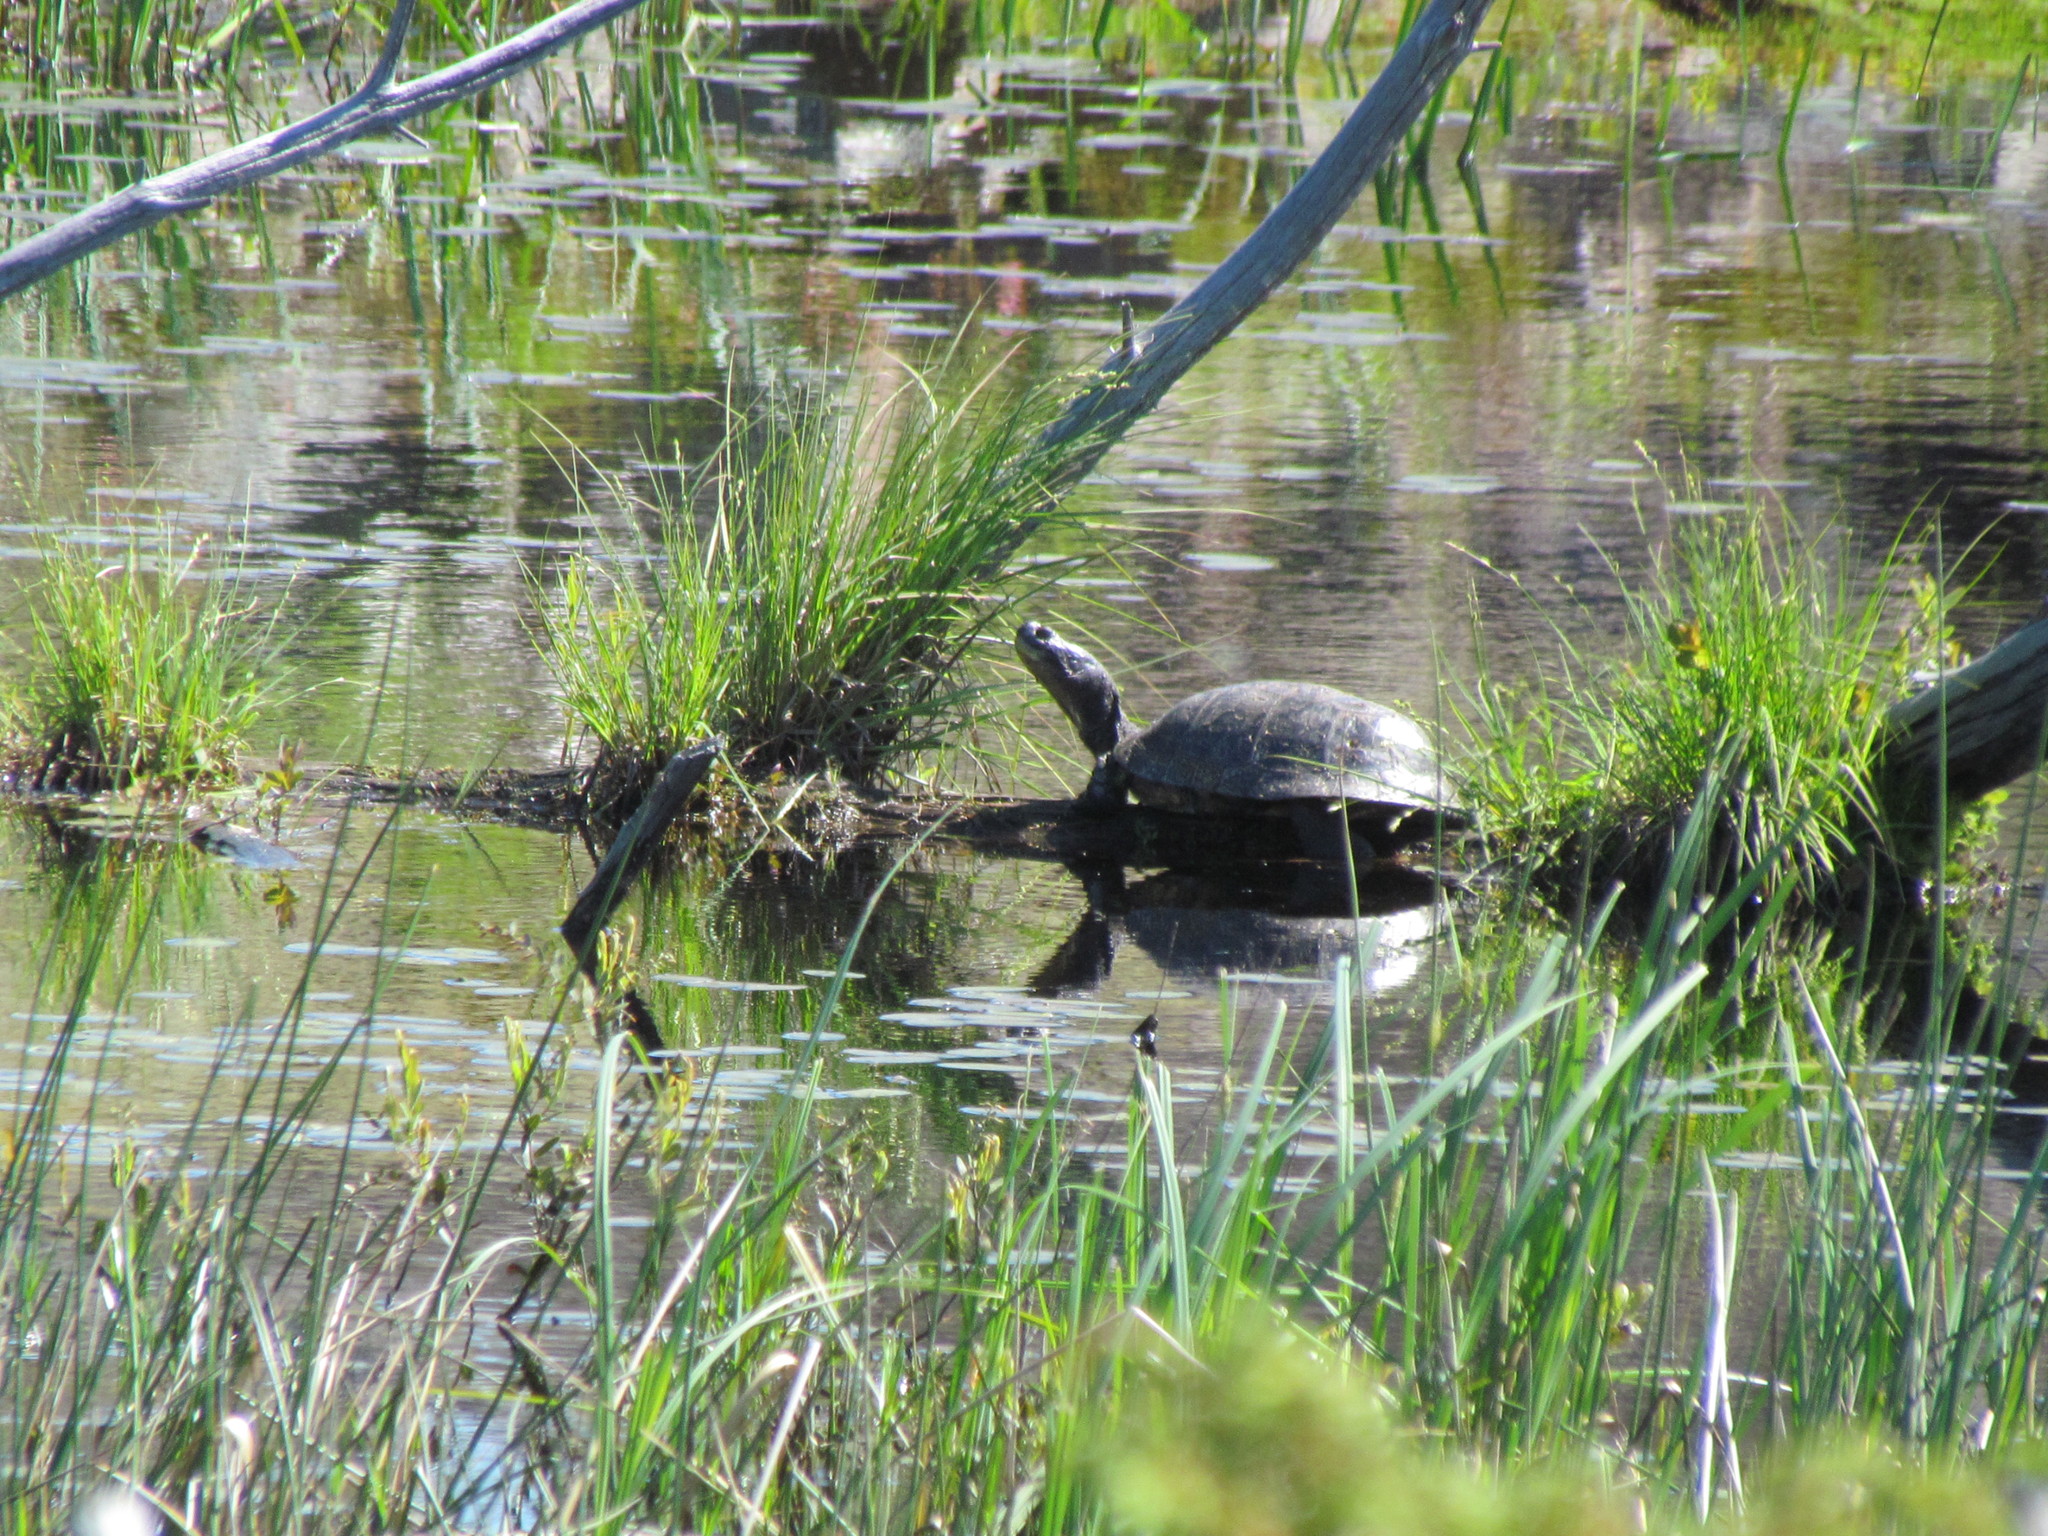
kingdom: Animalia
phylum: Chordata
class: Testudines
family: Emydidae
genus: Emys
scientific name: Emys blandingii
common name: Blanding's turtle
